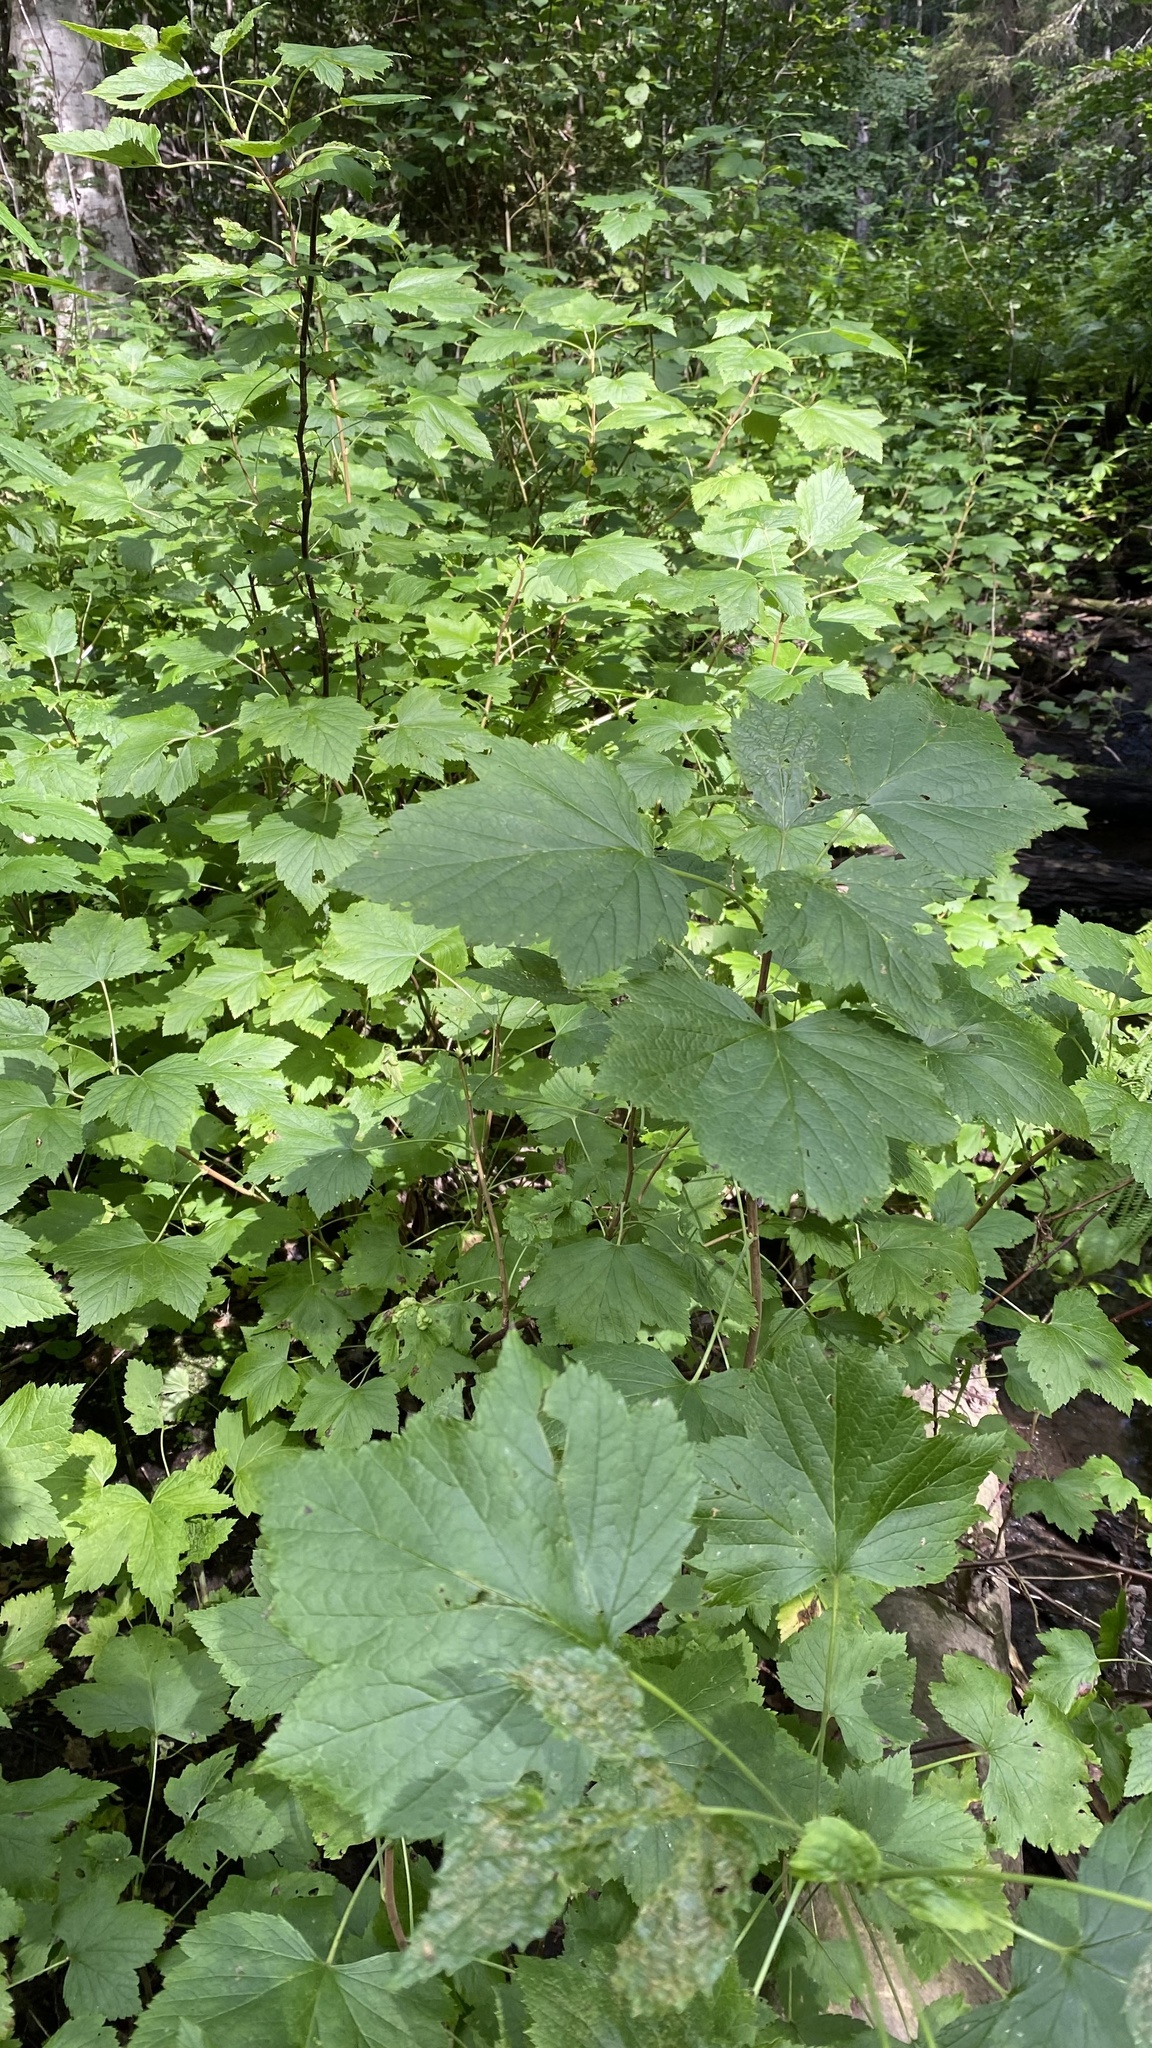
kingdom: Plantae
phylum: Tracheophyta
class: Magnoliopsida
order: Saxifragales
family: Grossulariaceae
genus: Ribes
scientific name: Ribes nigrum
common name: Black currant
